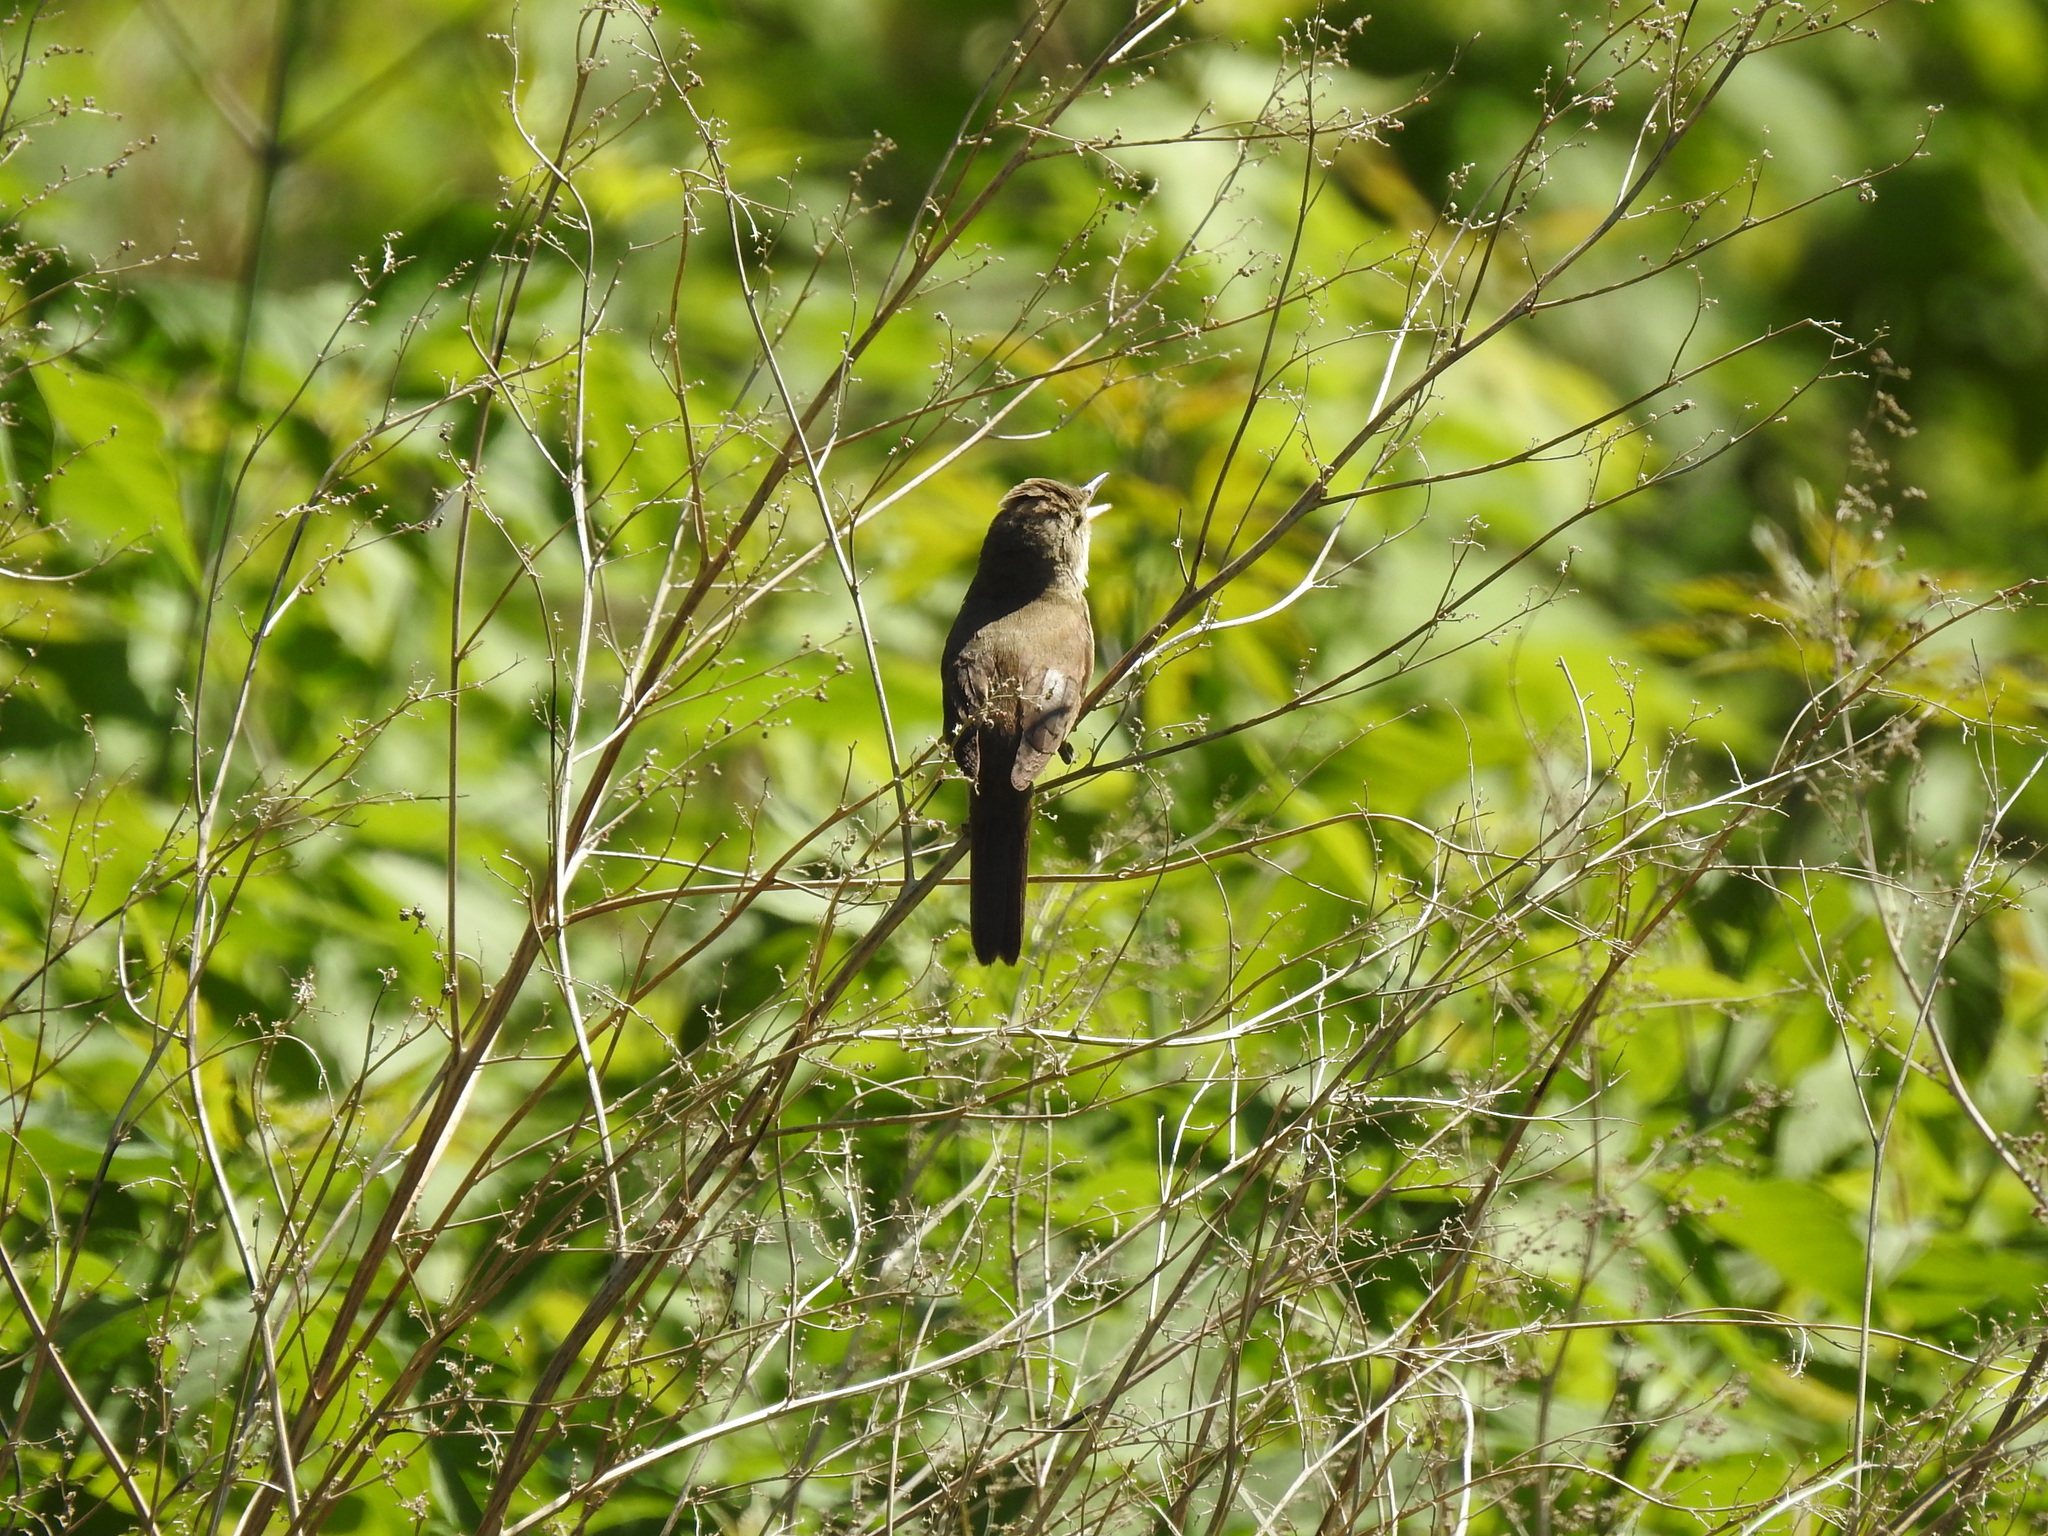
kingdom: Animalia
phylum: Chordata
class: Aves
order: Passeriformes
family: Acrocephalidae
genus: Acrocephalus
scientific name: Acrocephalus dumetorum
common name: Blyth's reed warbler
